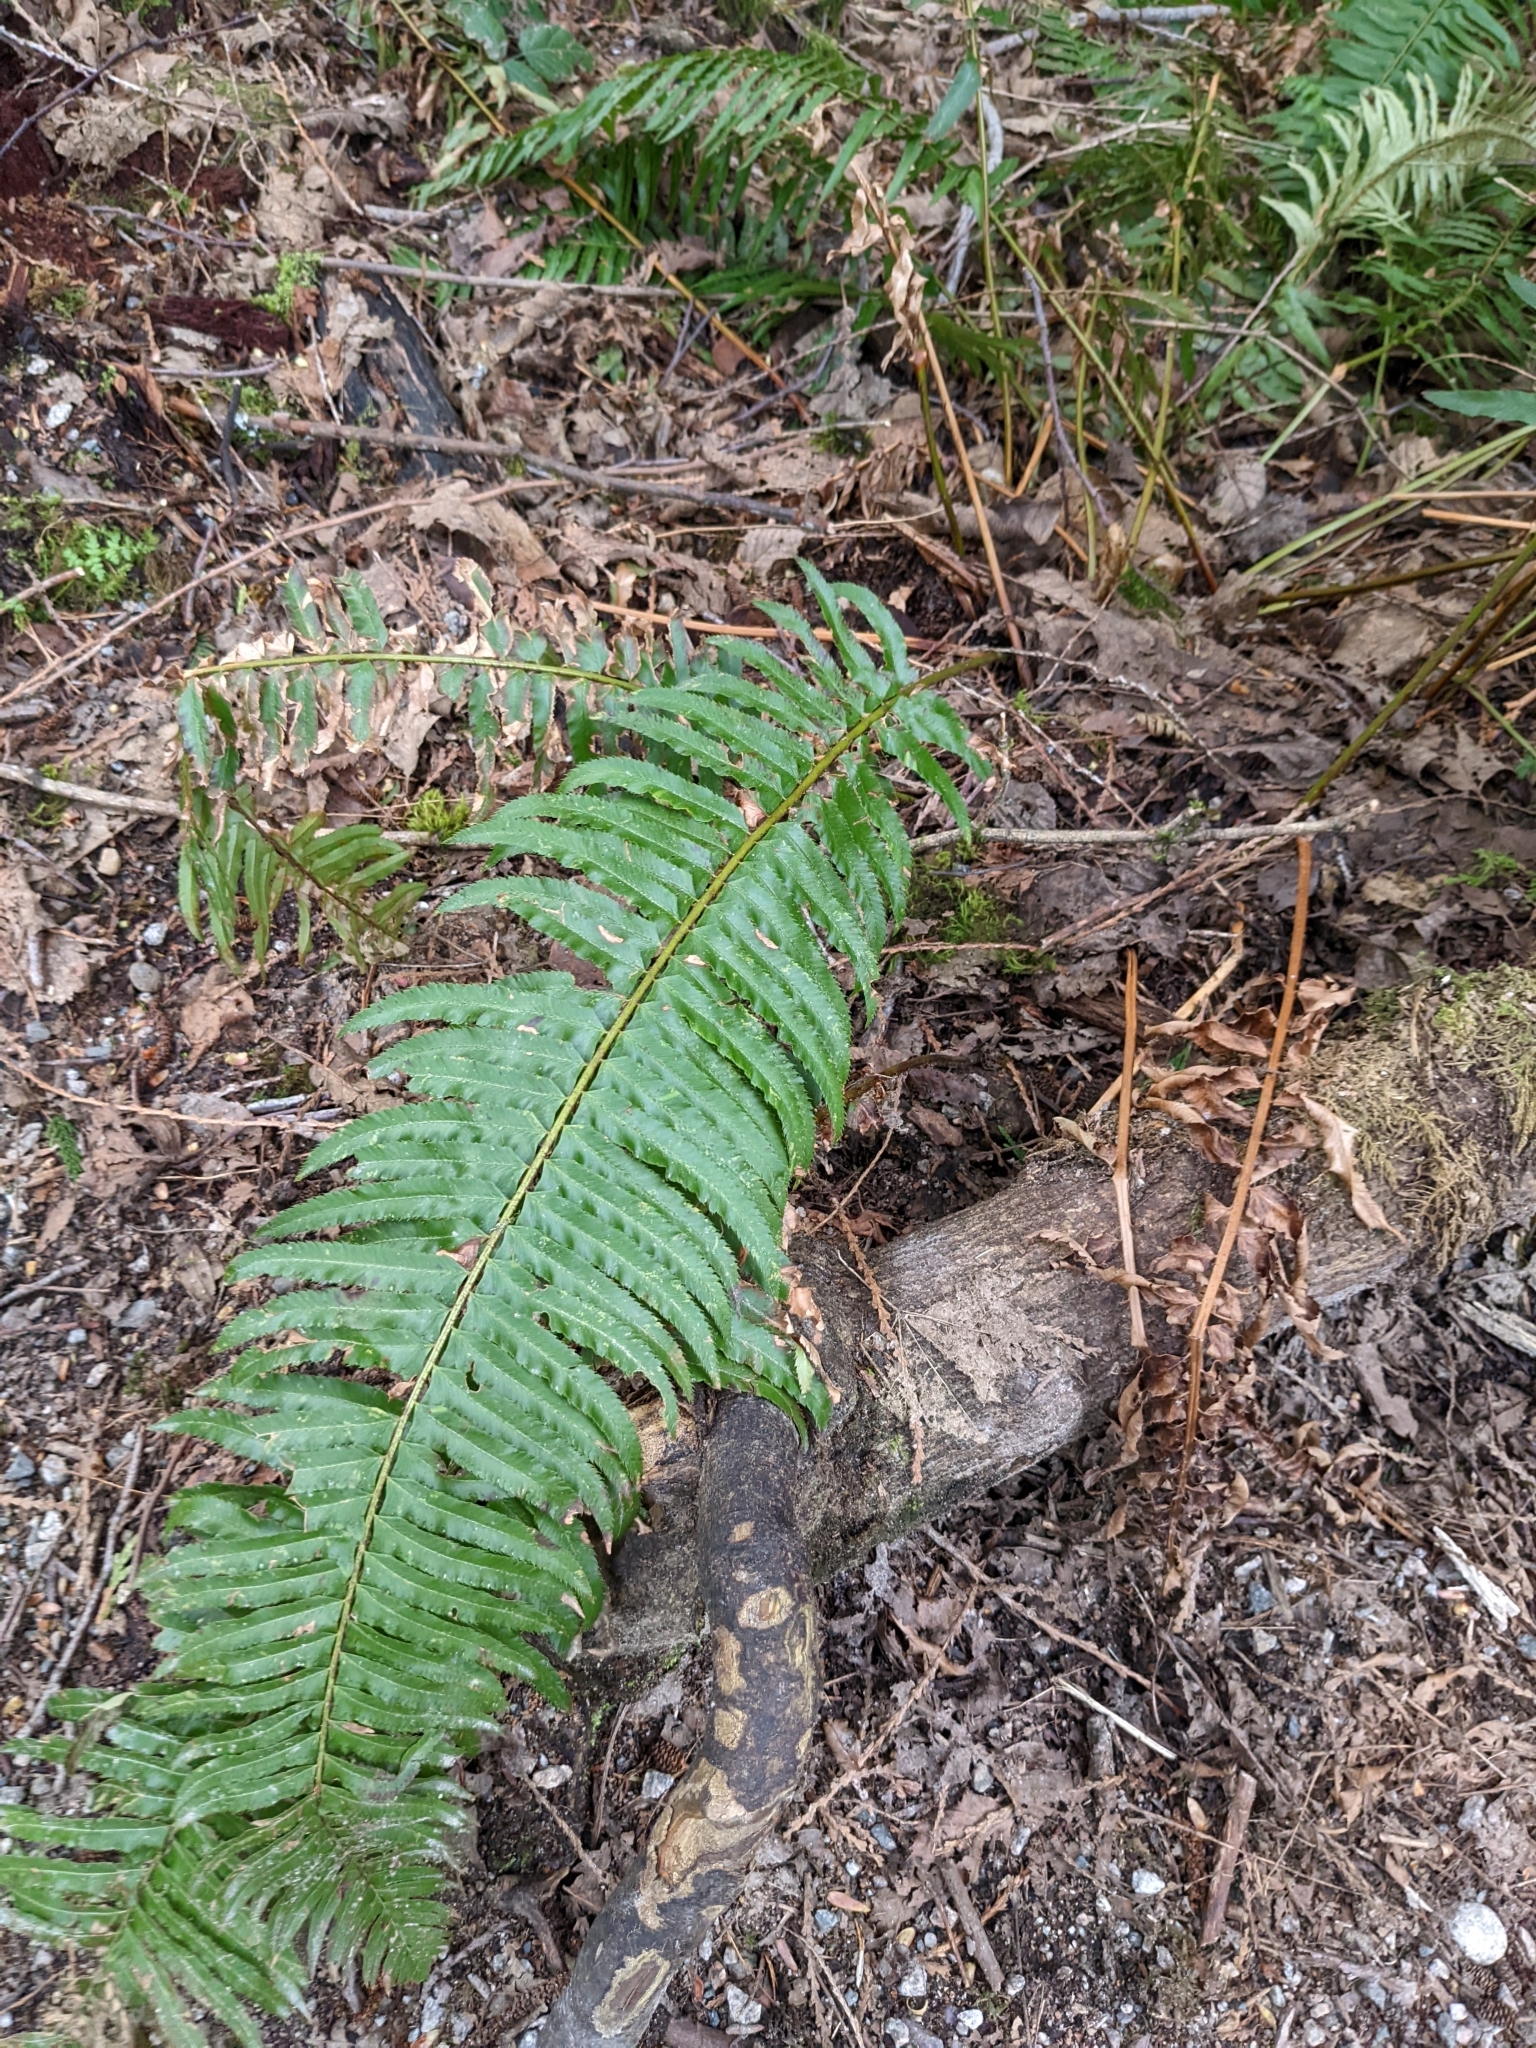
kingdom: Plantae
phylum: Tracheophyta
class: Polypodiopsida
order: Polypodiales
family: Dryopteridaceae
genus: Polystichum
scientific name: Polystichum munitum
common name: Western sword-fern
